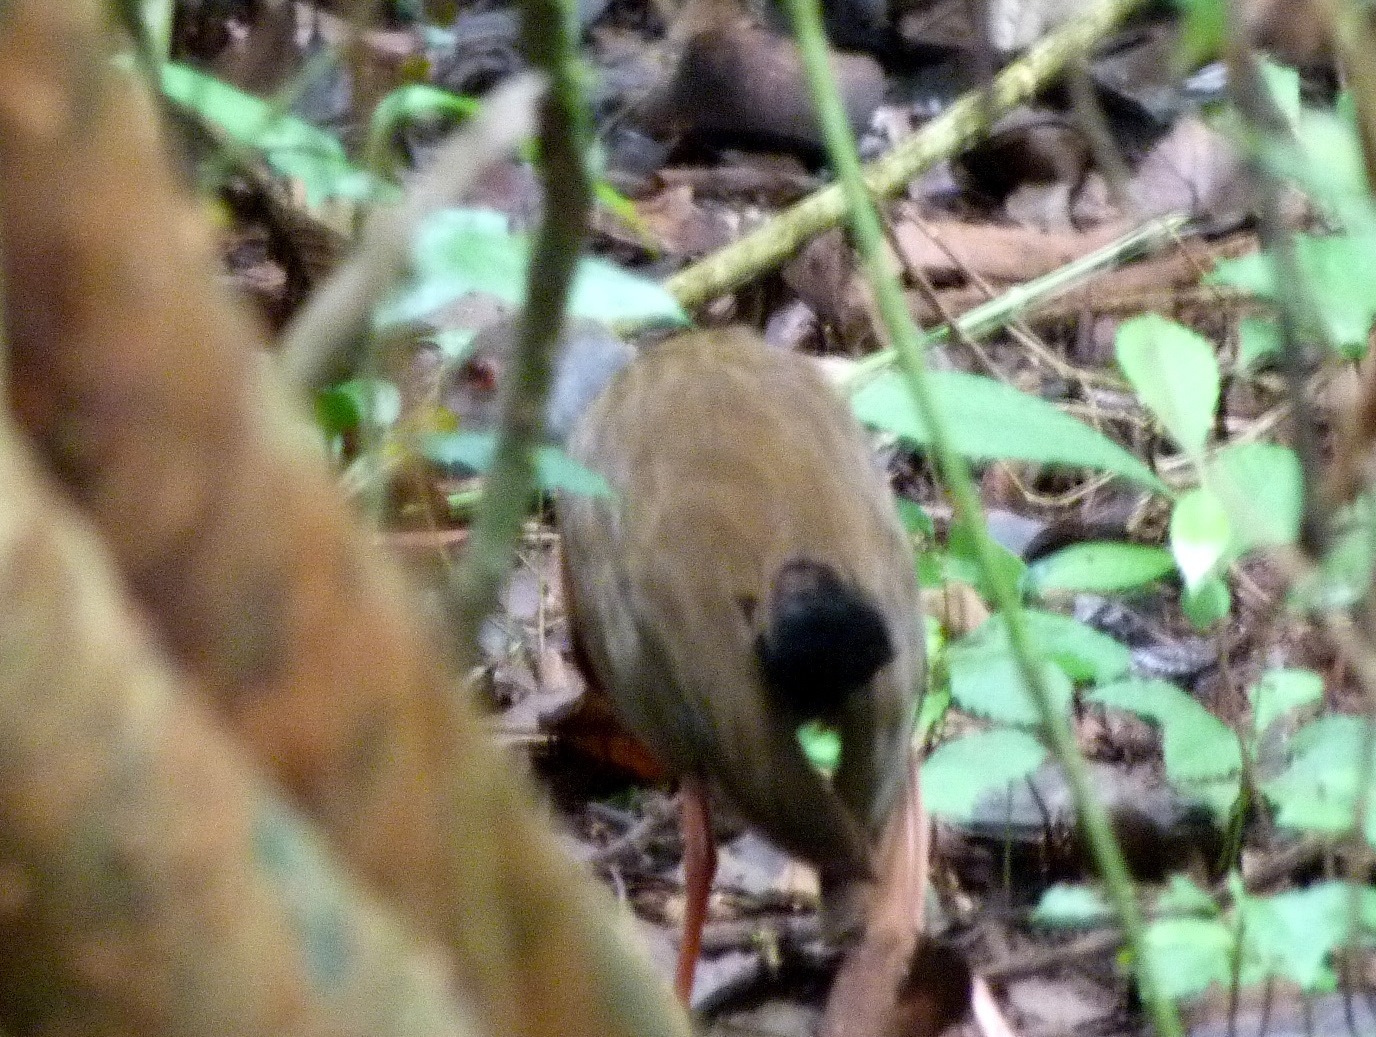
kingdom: Animalia
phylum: Chordata
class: Aves
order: Gruiformes
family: Rallidae
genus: Aramides
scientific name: Aramides cajanea
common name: Gray-necked wood-rail
